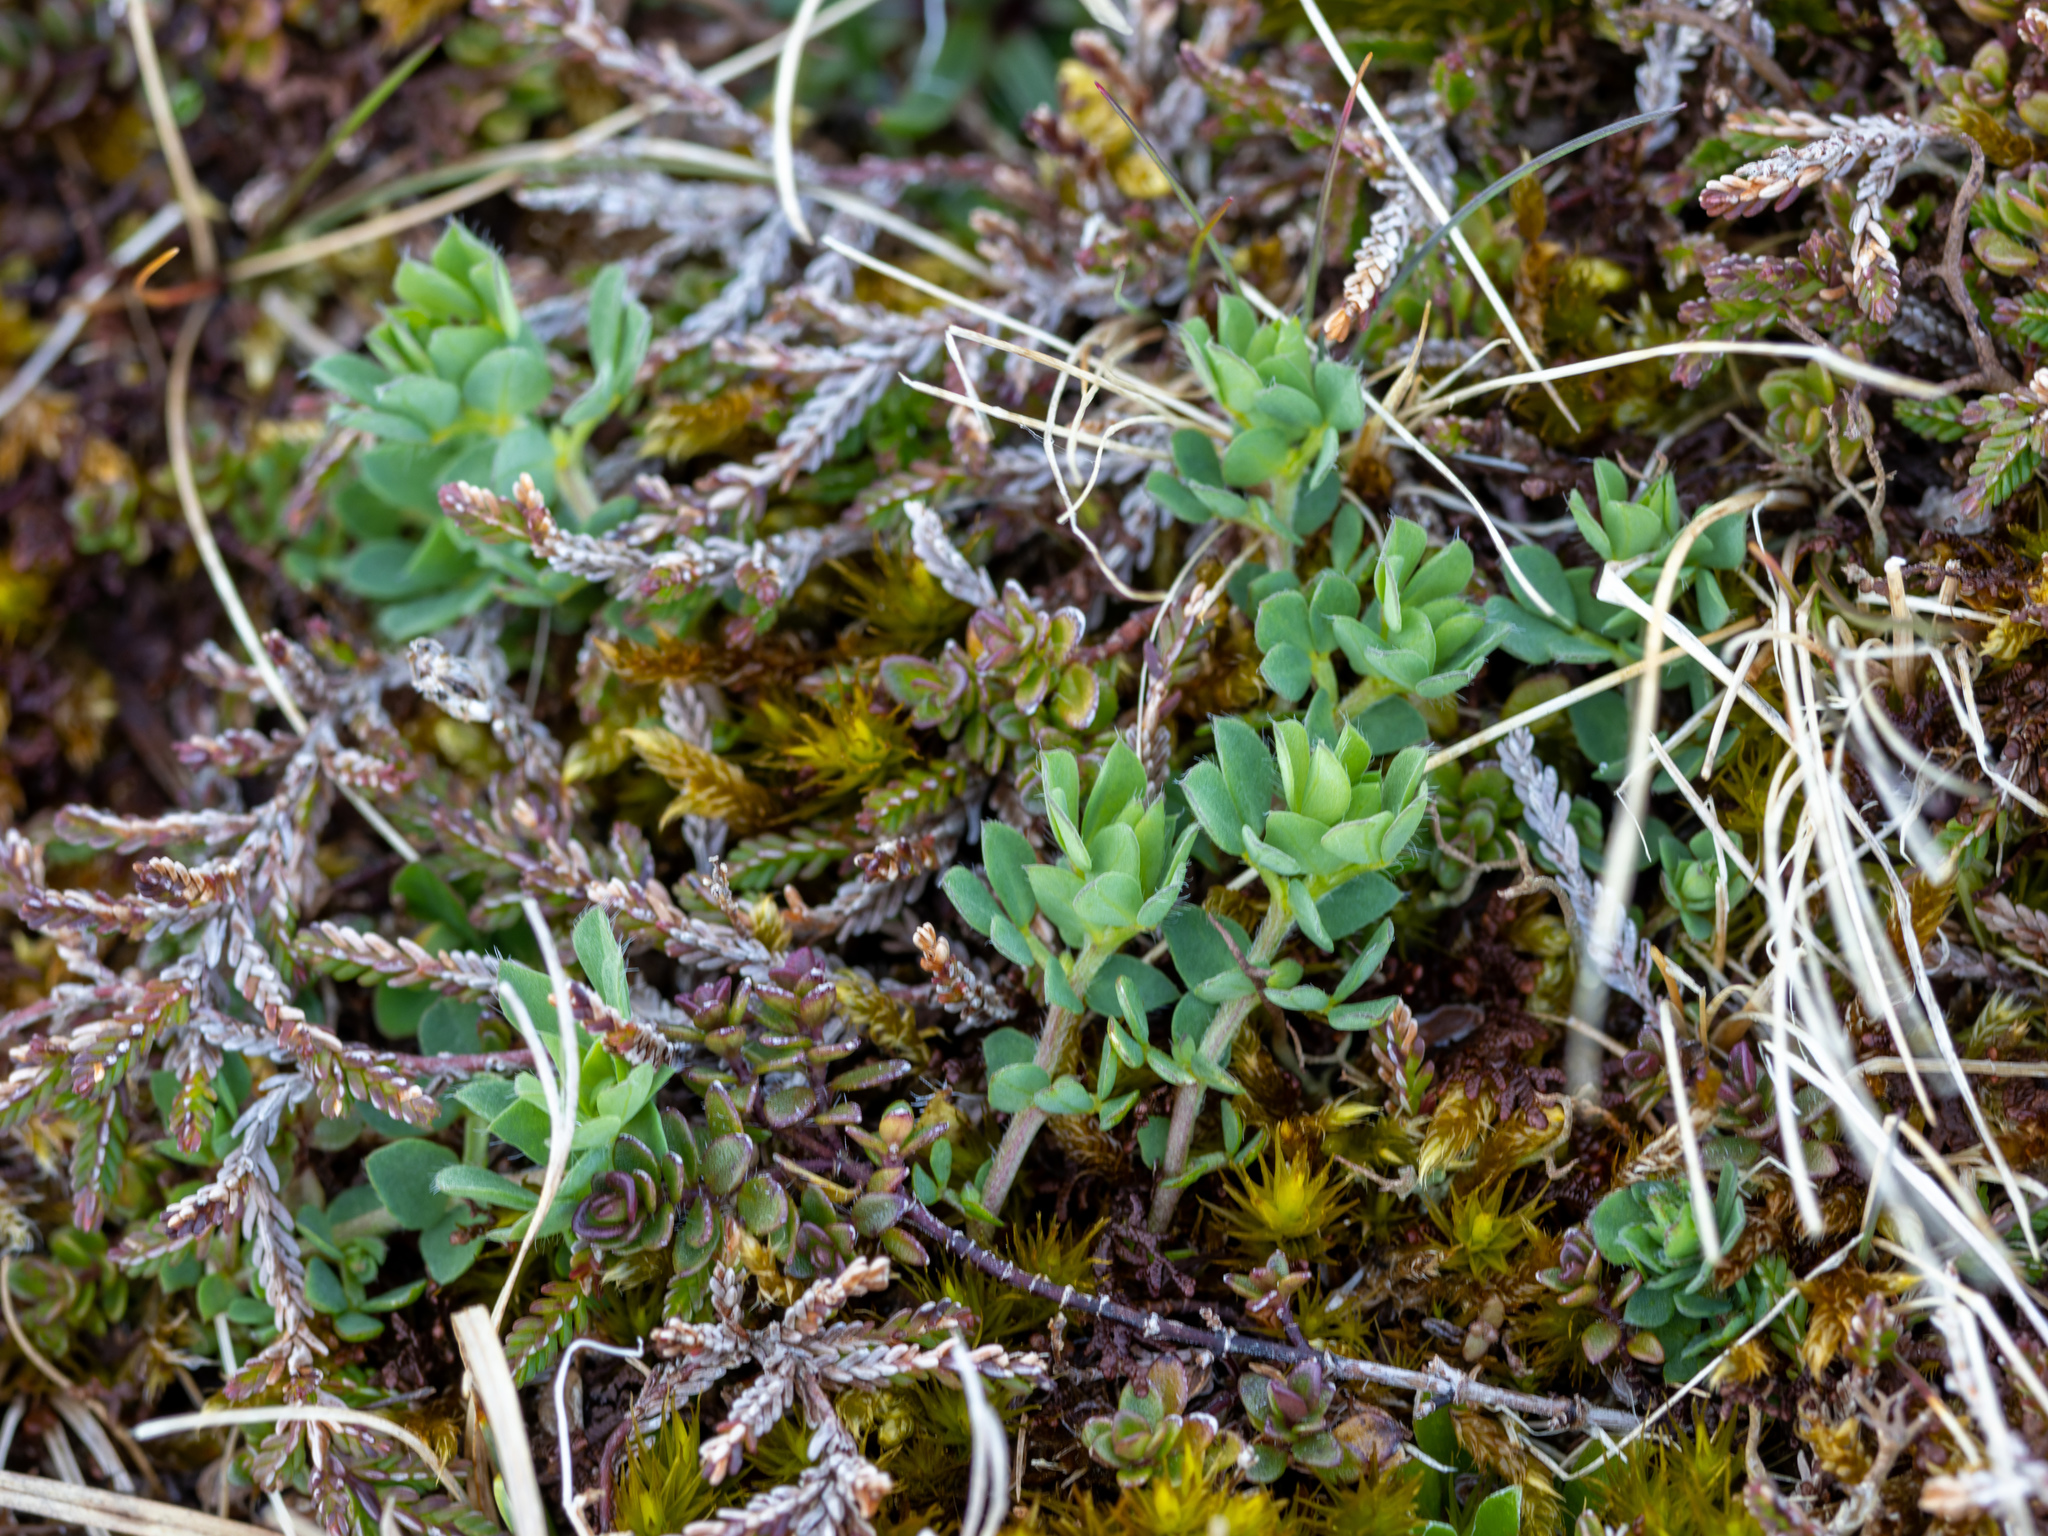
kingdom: Plantae
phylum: Tracheophyta
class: Magnoliopsida
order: Fabales
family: Fabaceae
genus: Lotus
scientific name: Lotus corniculatus
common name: Common bird's-foot-trefoil
